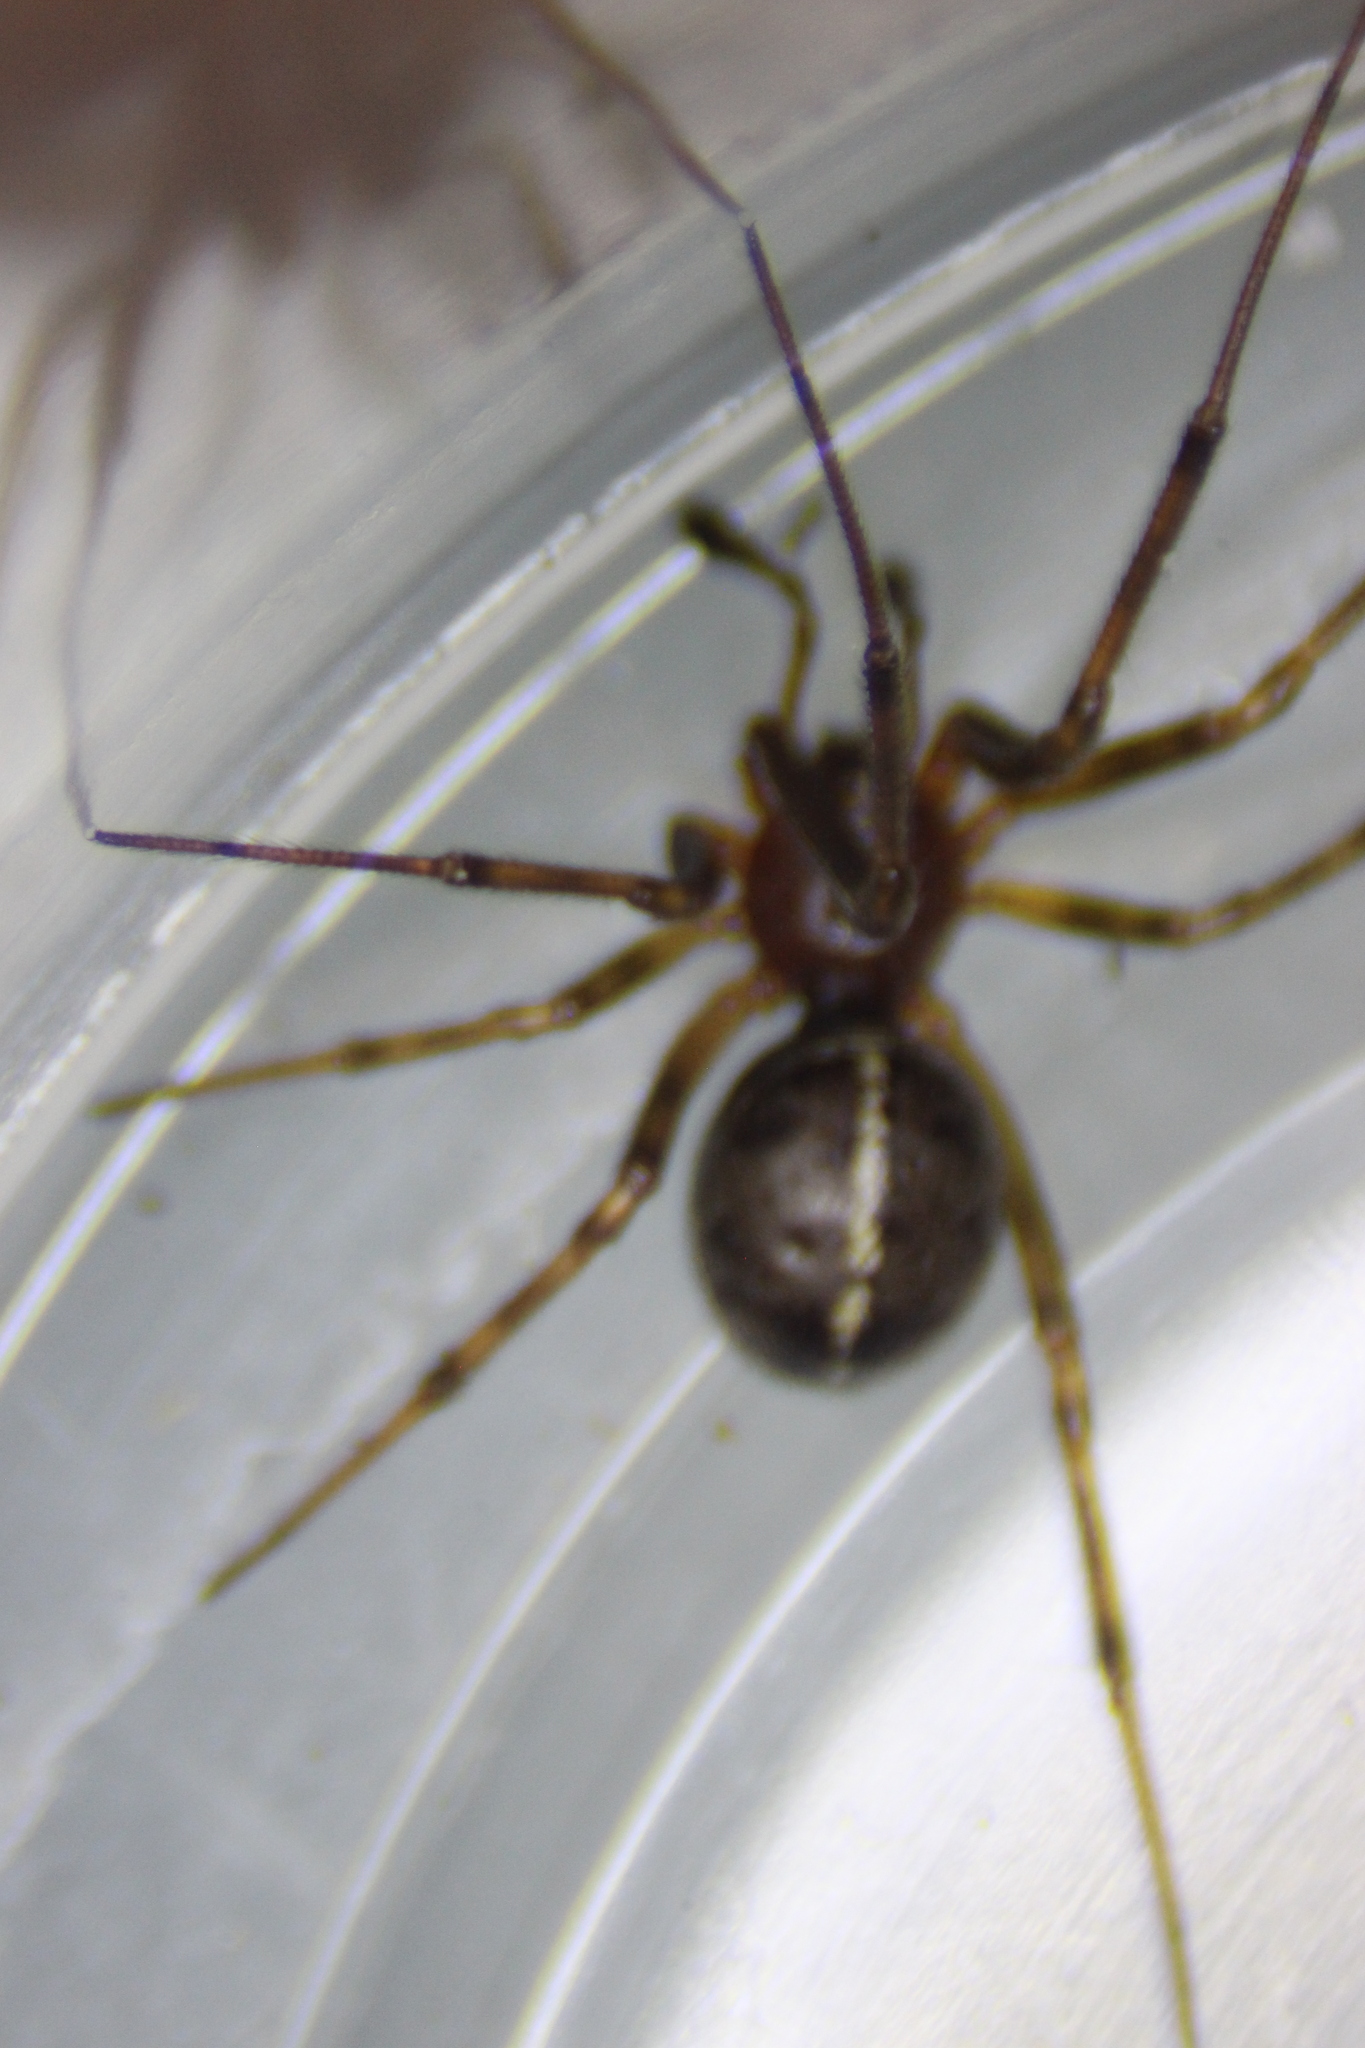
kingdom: Animalia
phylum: Arthropoda
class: Arachnida
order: Araneae
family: Theridiidae
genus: Steatoda
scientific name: Steatoda borealis
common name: Boreal combfoot
